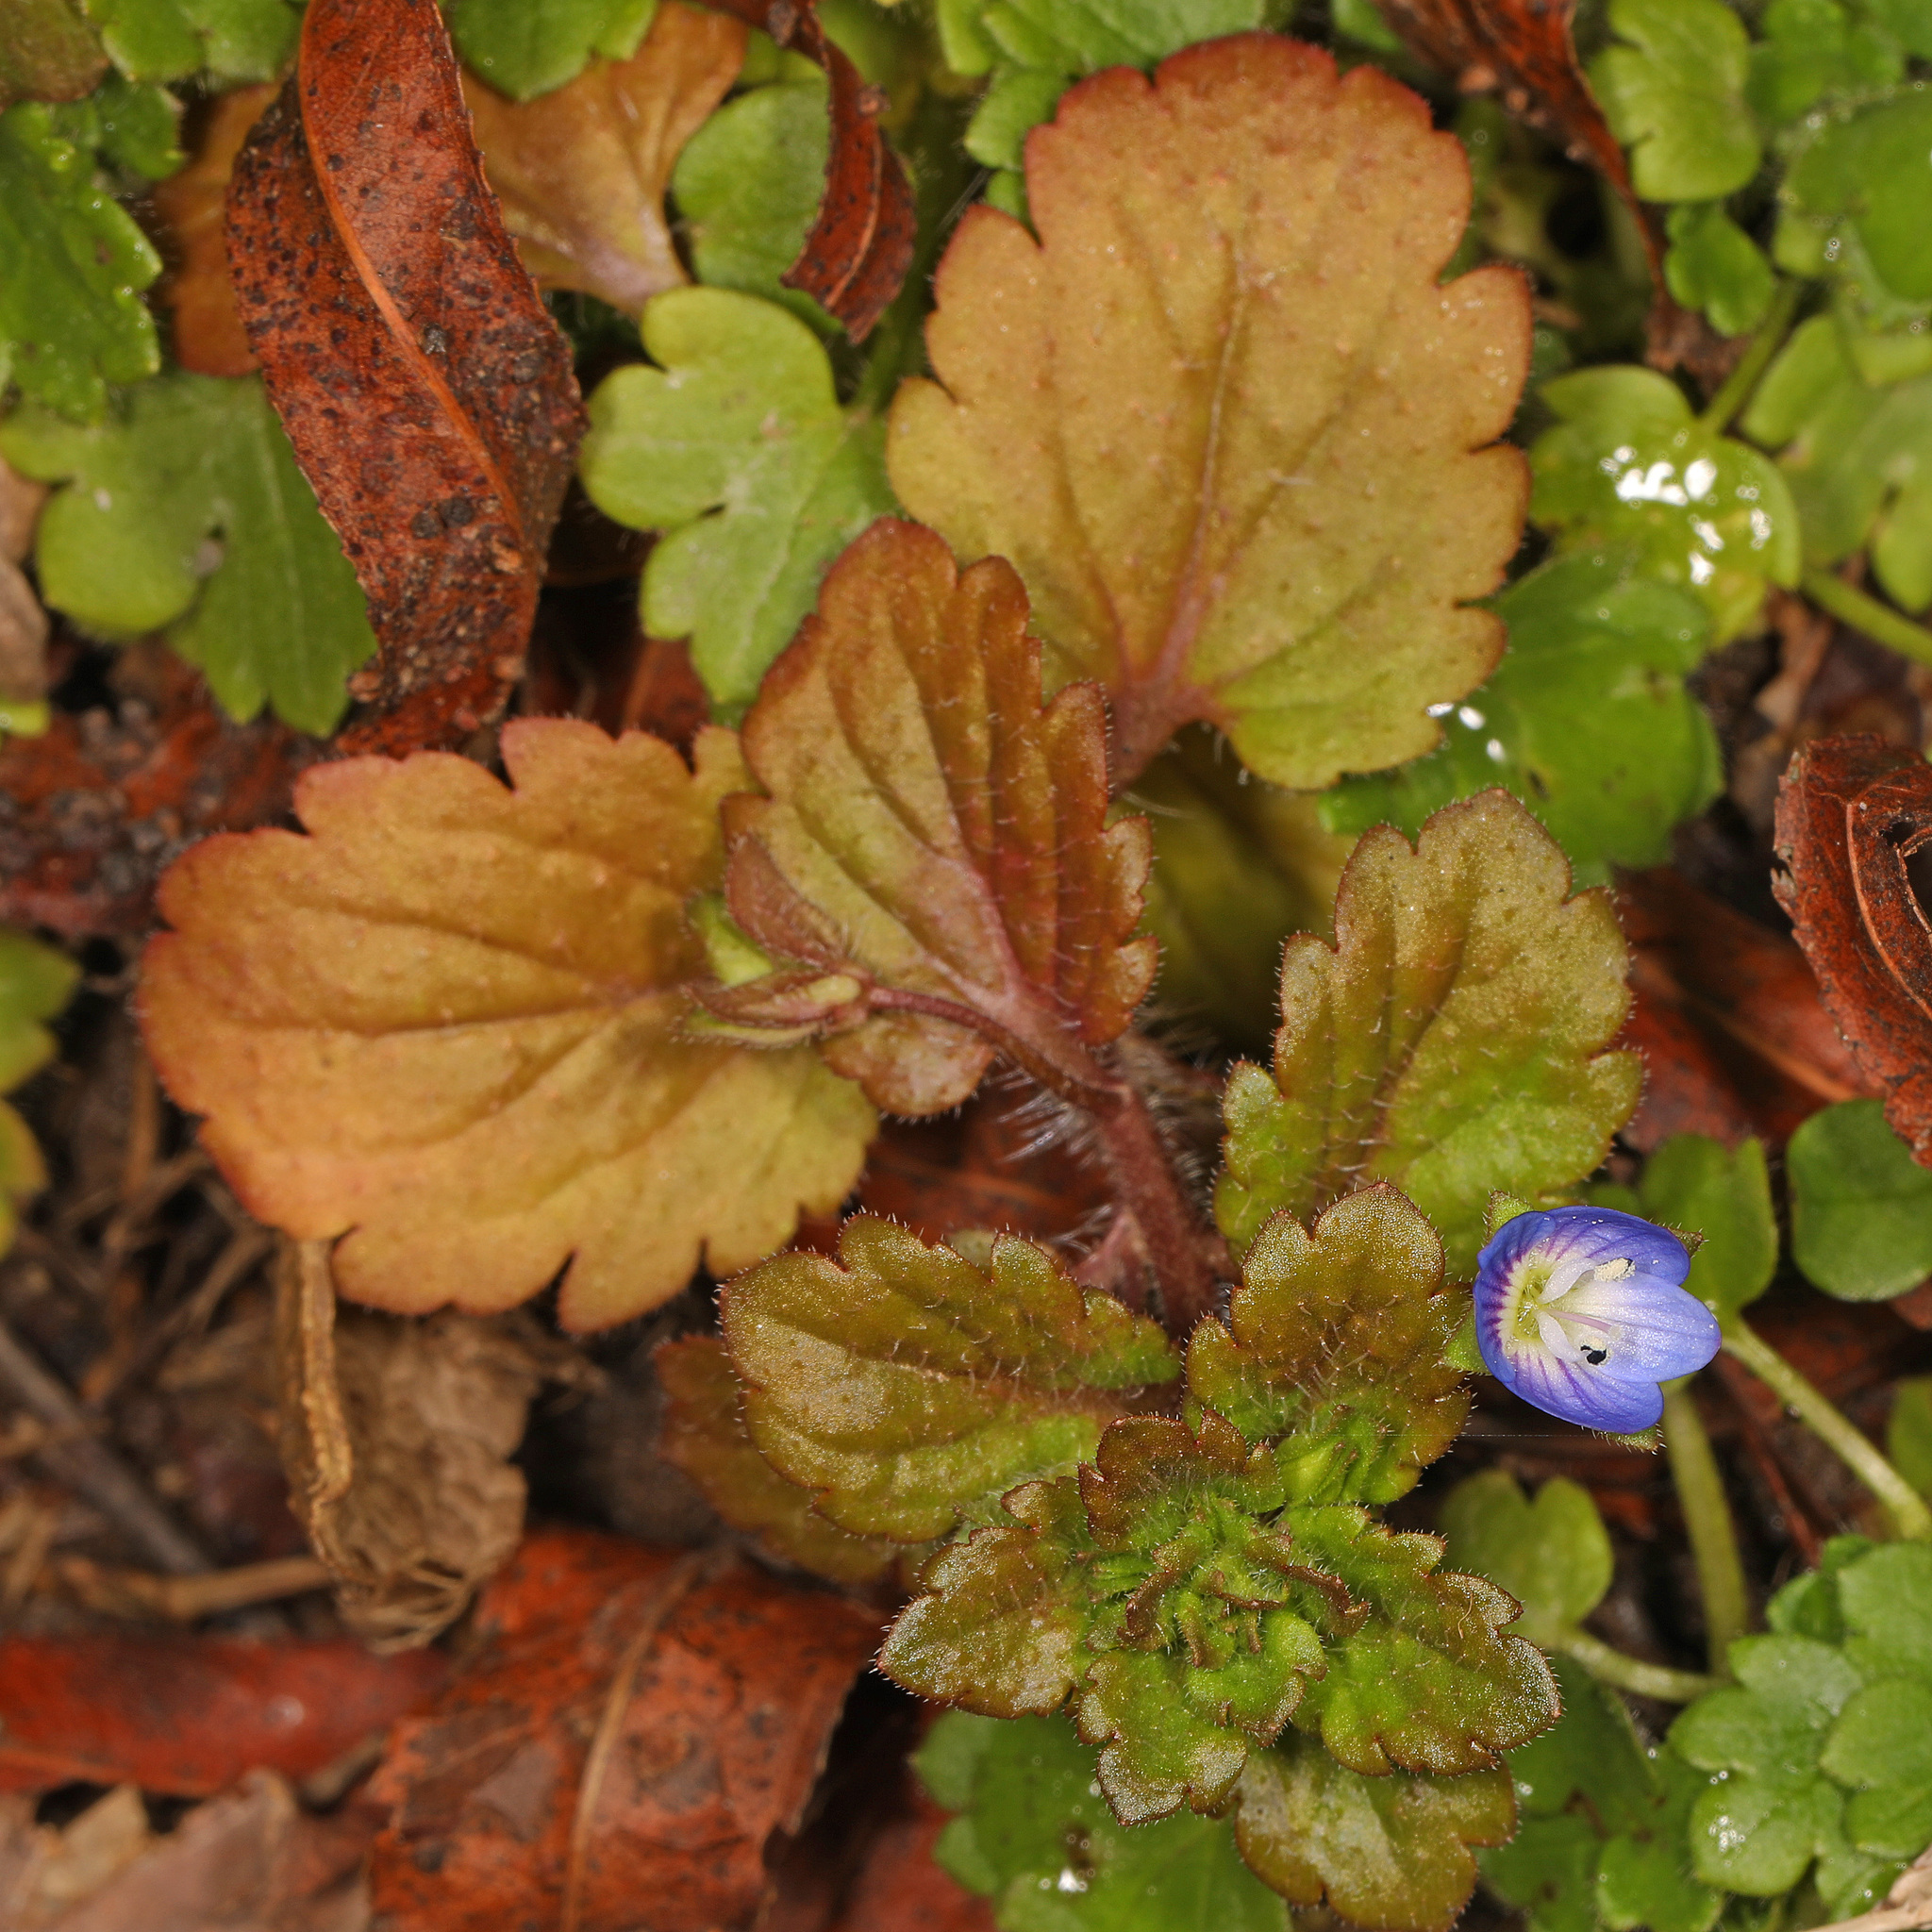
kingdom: Plantae
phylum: Tracheophyta
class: Magnoliopsida
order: Lamiales
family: Plantaginaceae
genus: Veronica
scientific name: Veronica persica
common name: Common field-speedwell
